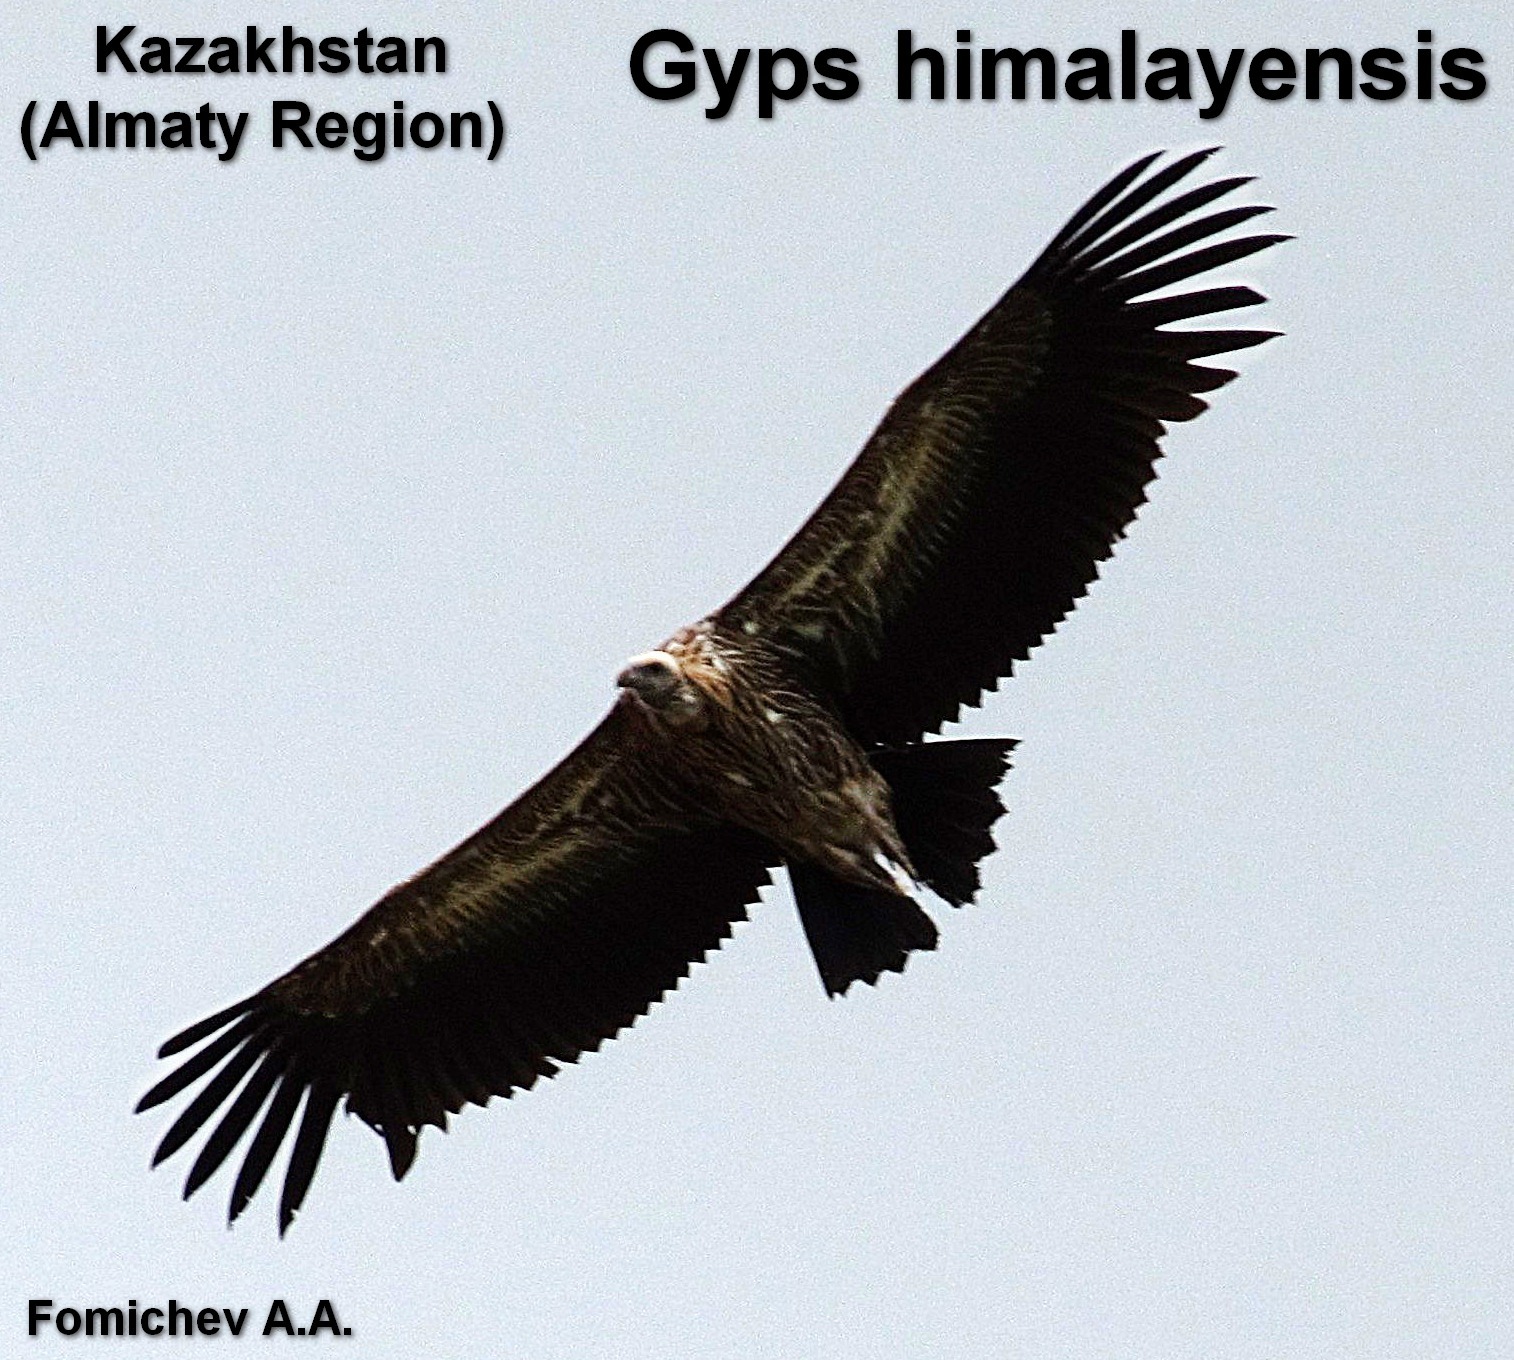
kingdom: Animalia
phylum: Chordata
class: Aves
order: Accipitriformes
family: Accipitridae
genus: Gyps
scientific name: Gyps himalayensis
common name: Himalayan griffon
